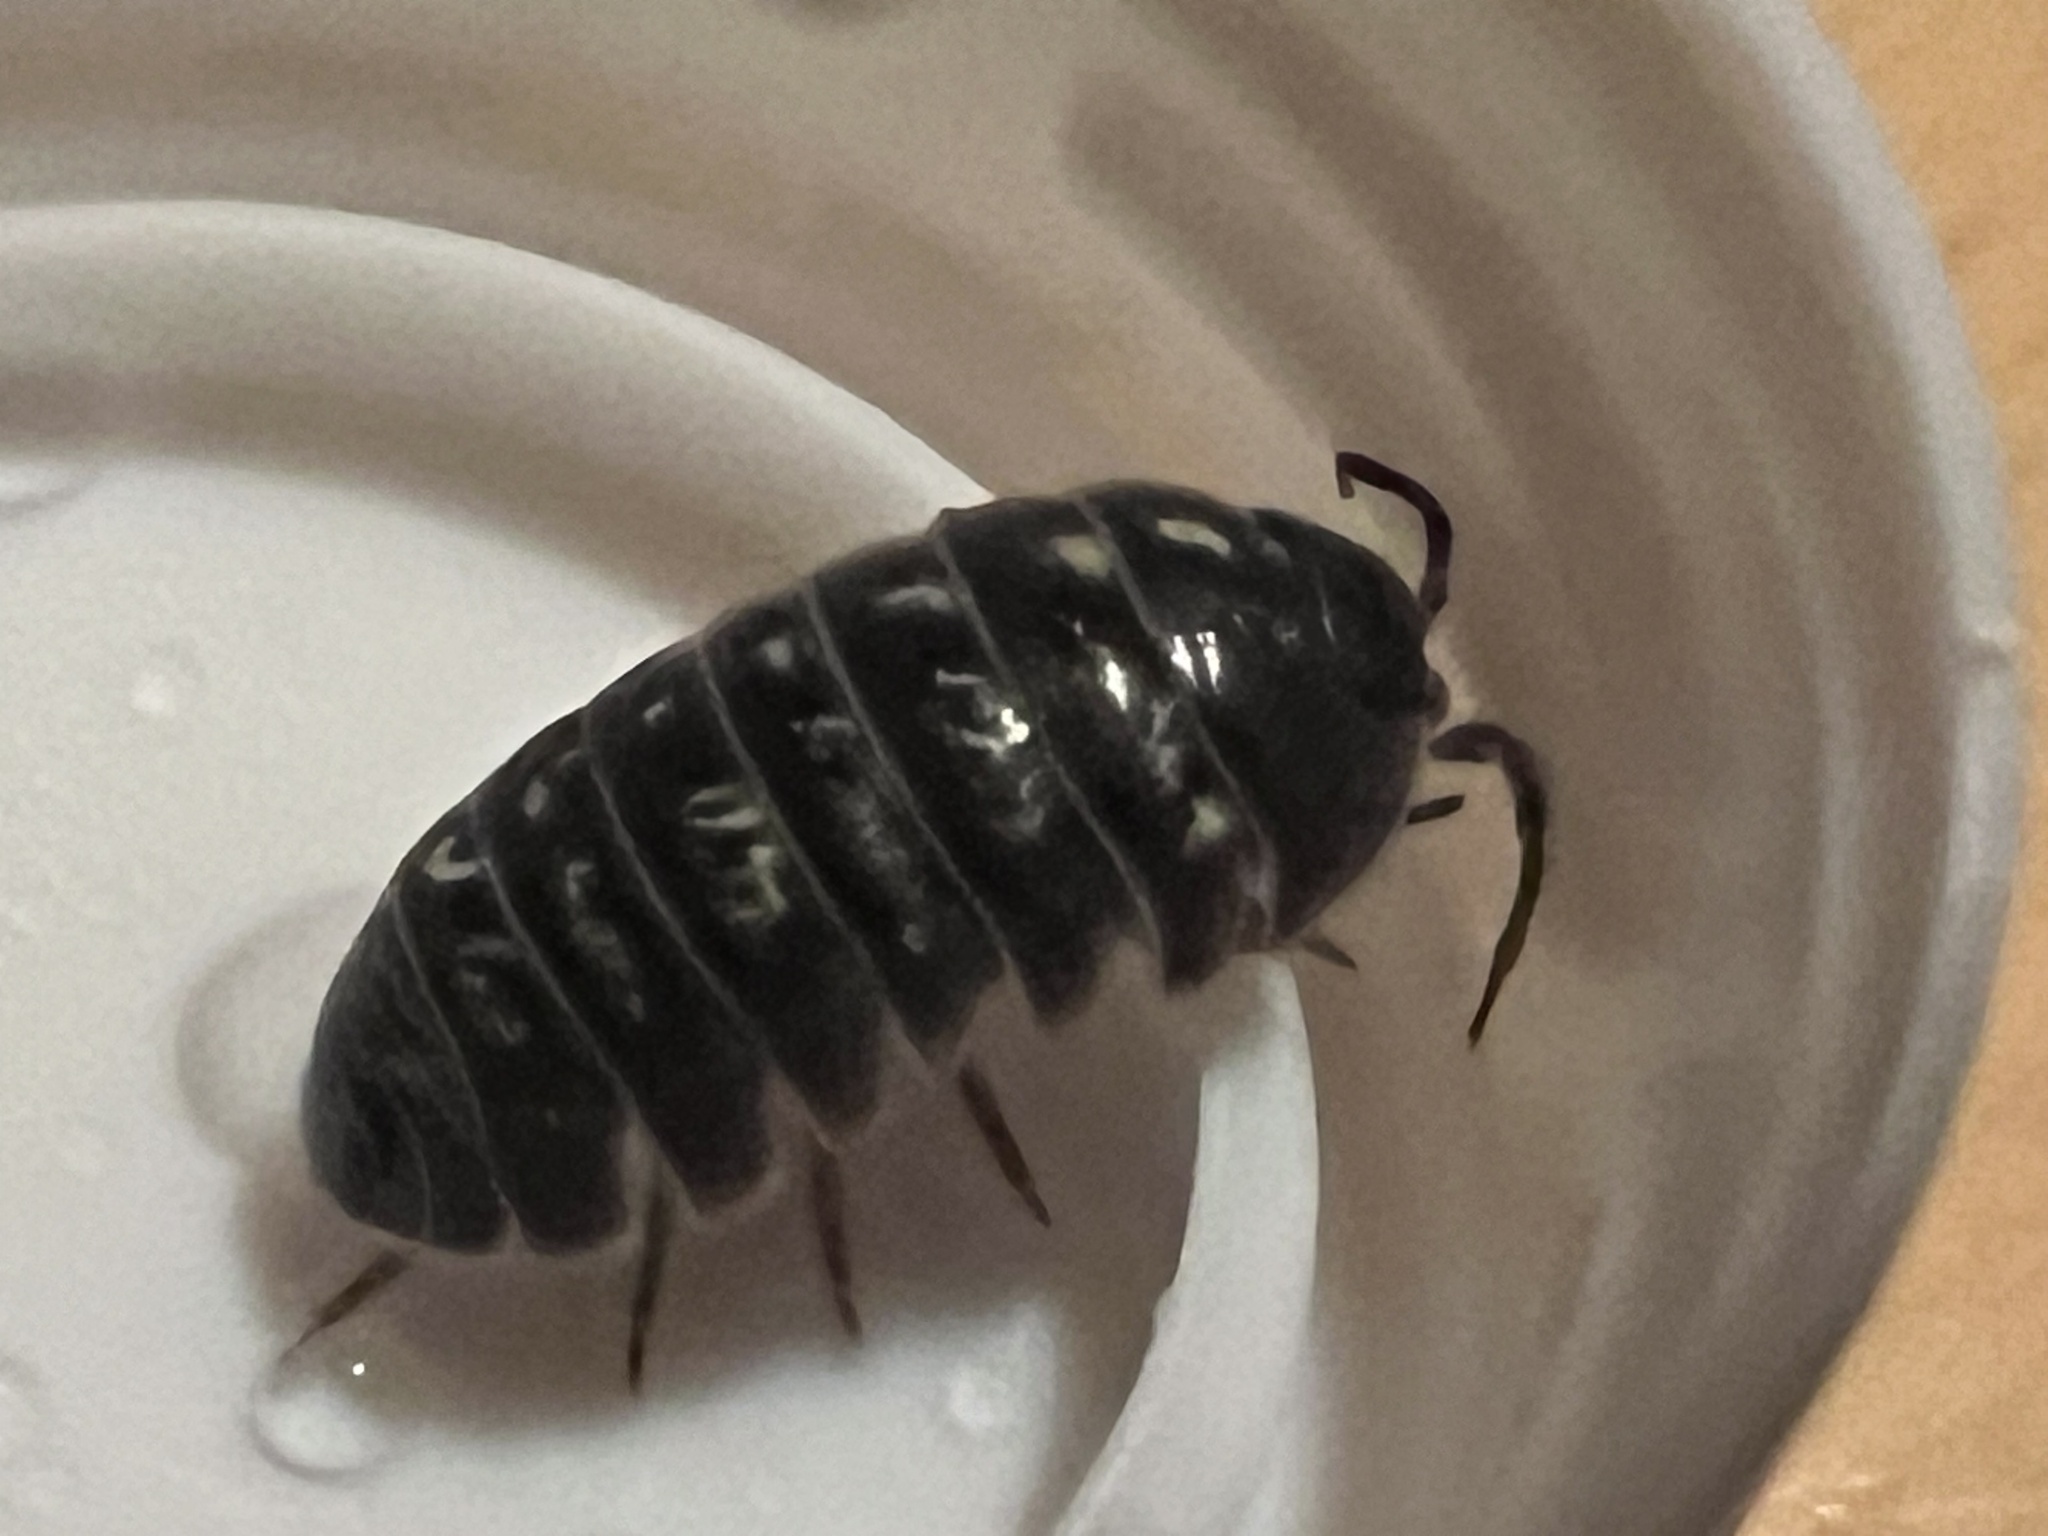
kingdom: Animalia
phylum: Arthropoda
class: Malacostraca
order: Isopoda
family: Armadillidiidae
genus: Armadillidium
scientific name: Armadillidium vulgare
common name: Common pill woodlouse
